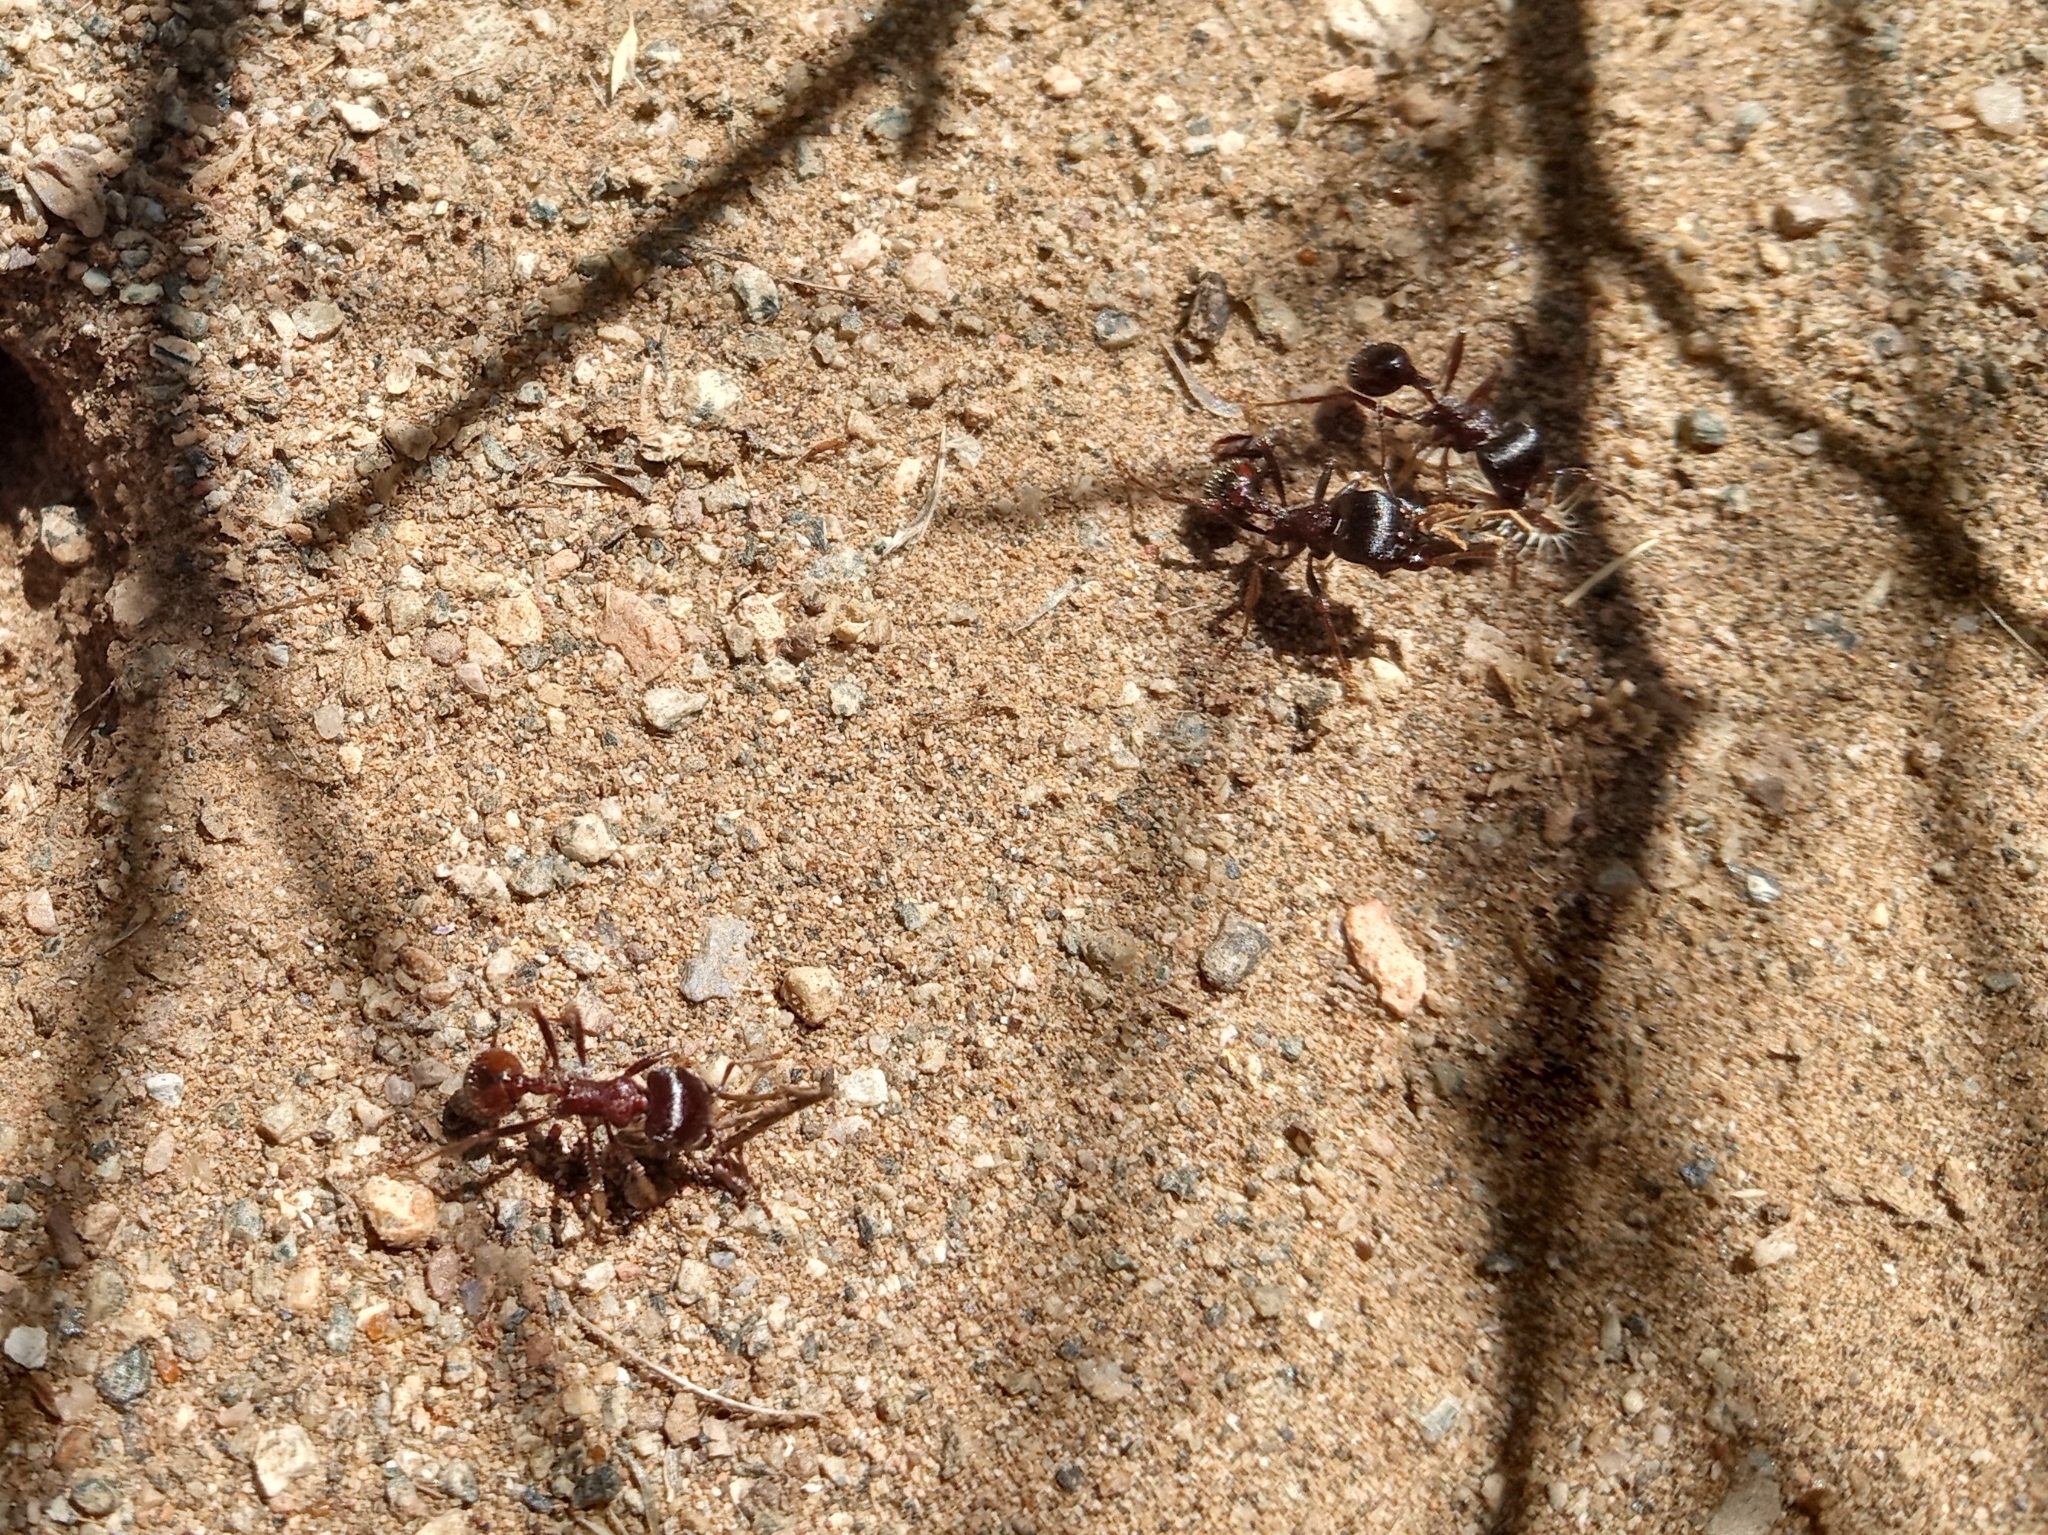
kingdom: Animalia
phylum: Arthropoda
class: Insecta
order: Hymenoptera
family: Formicidae
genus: Pogonomyrmex
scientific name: Pogonomyrmex rugosus
